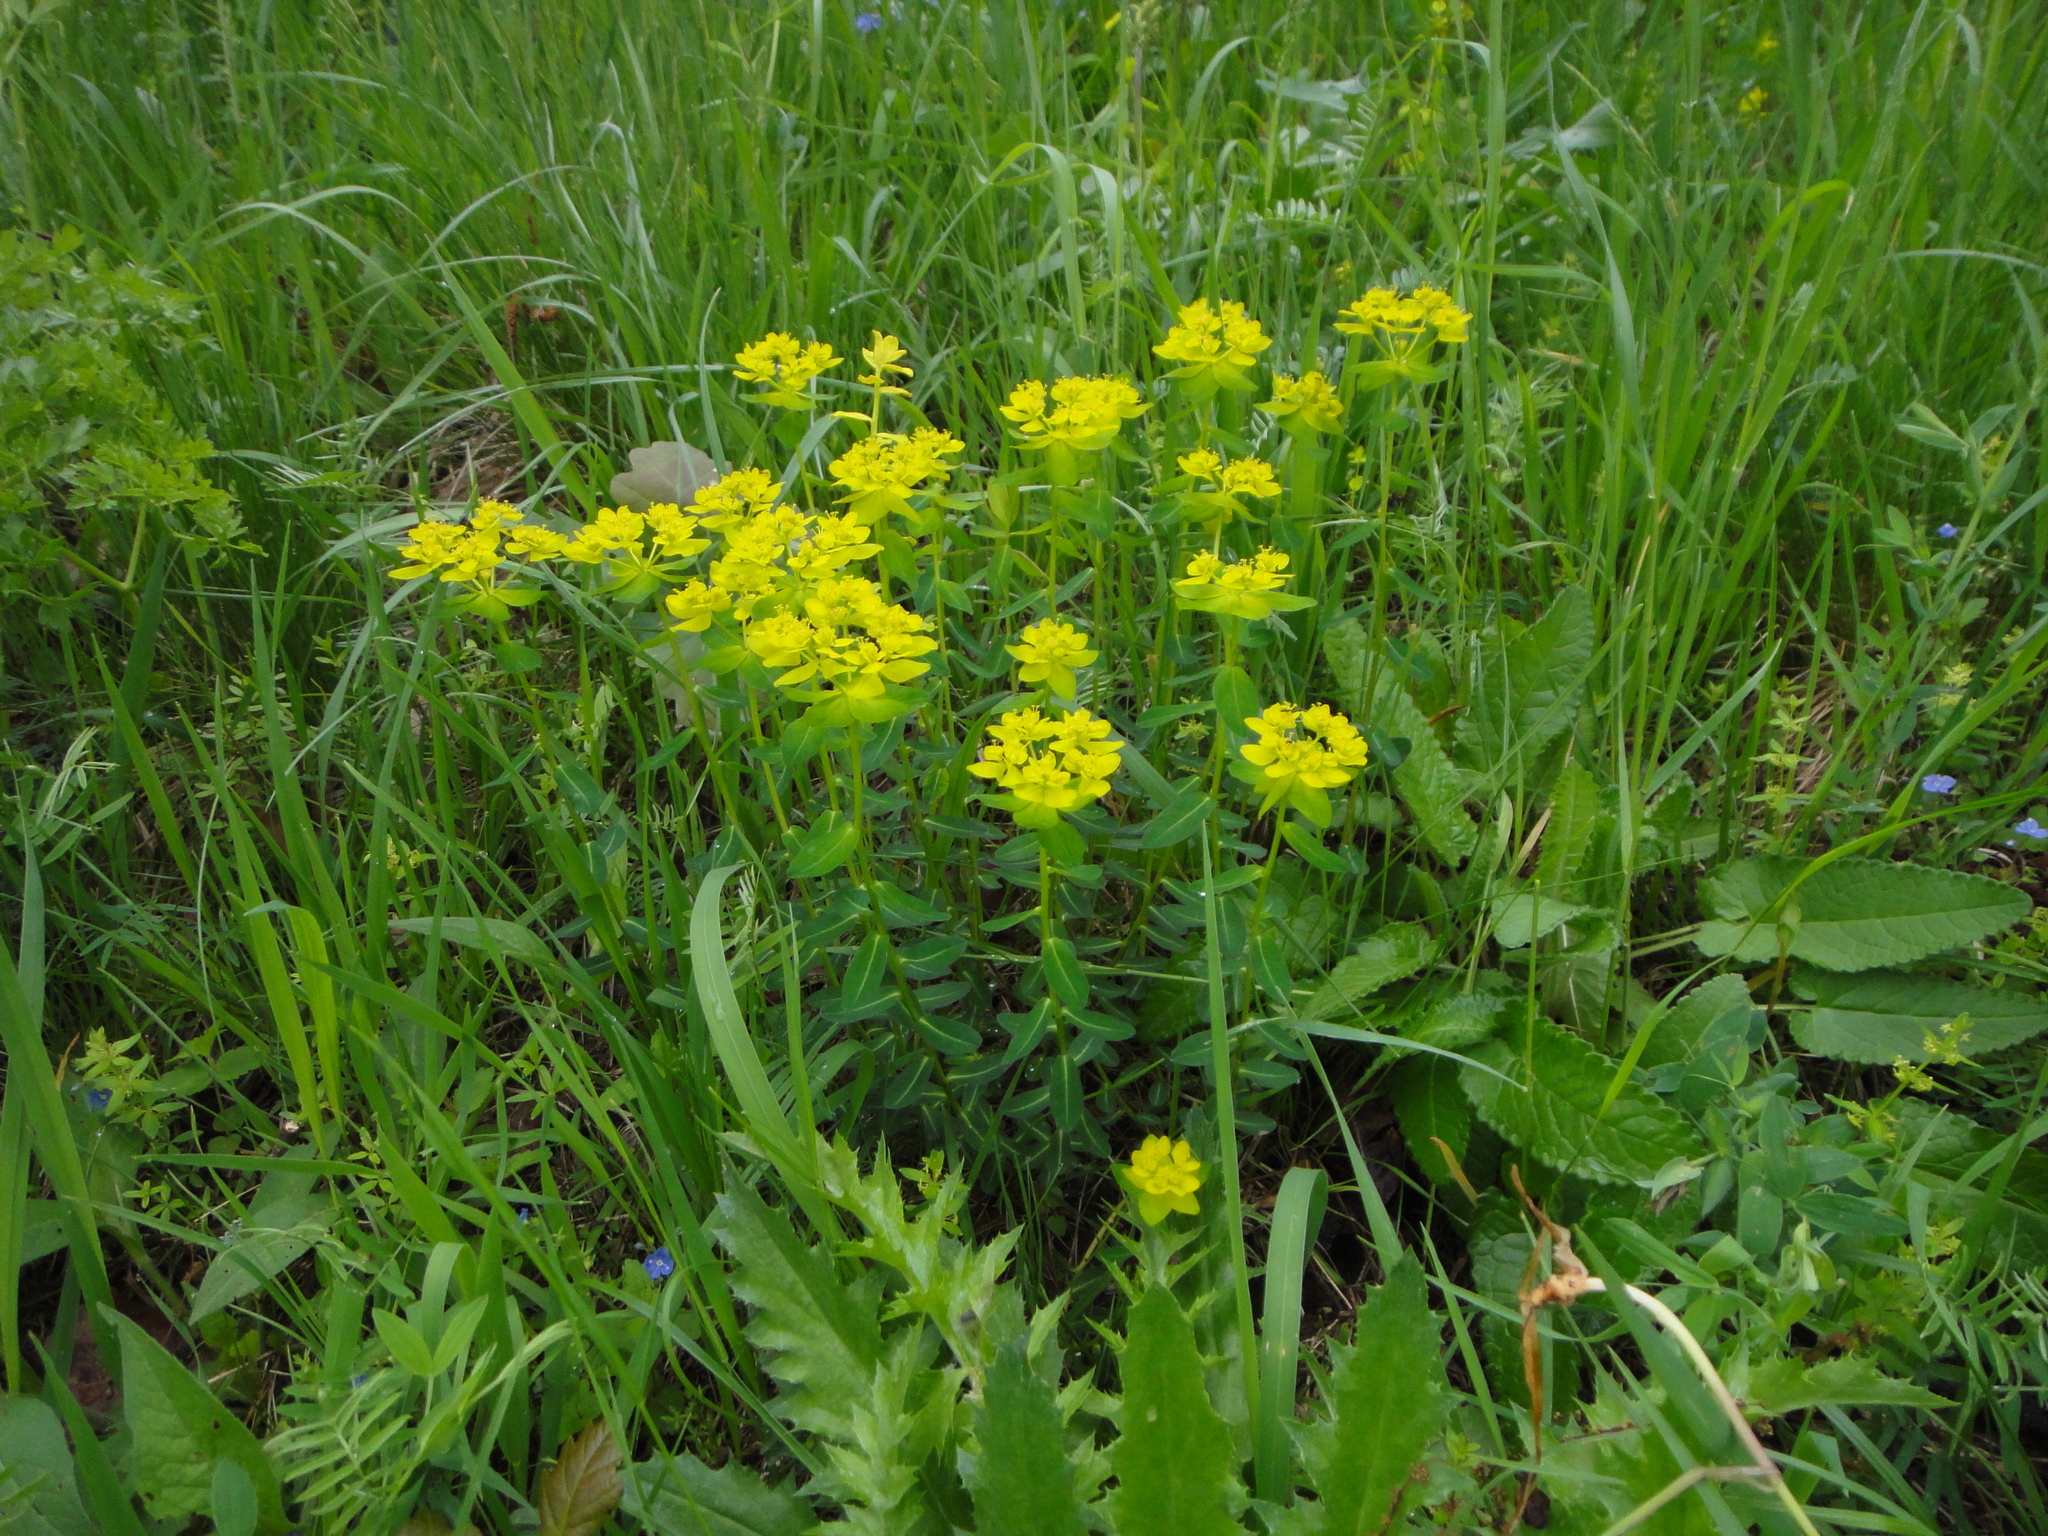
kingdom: Plantae
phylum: Tracheophyta
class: Magnoliopsida
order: Malpighiales
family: Euphorbiaceae
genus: Euphorbia
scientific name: Euphorbia verrucosa
